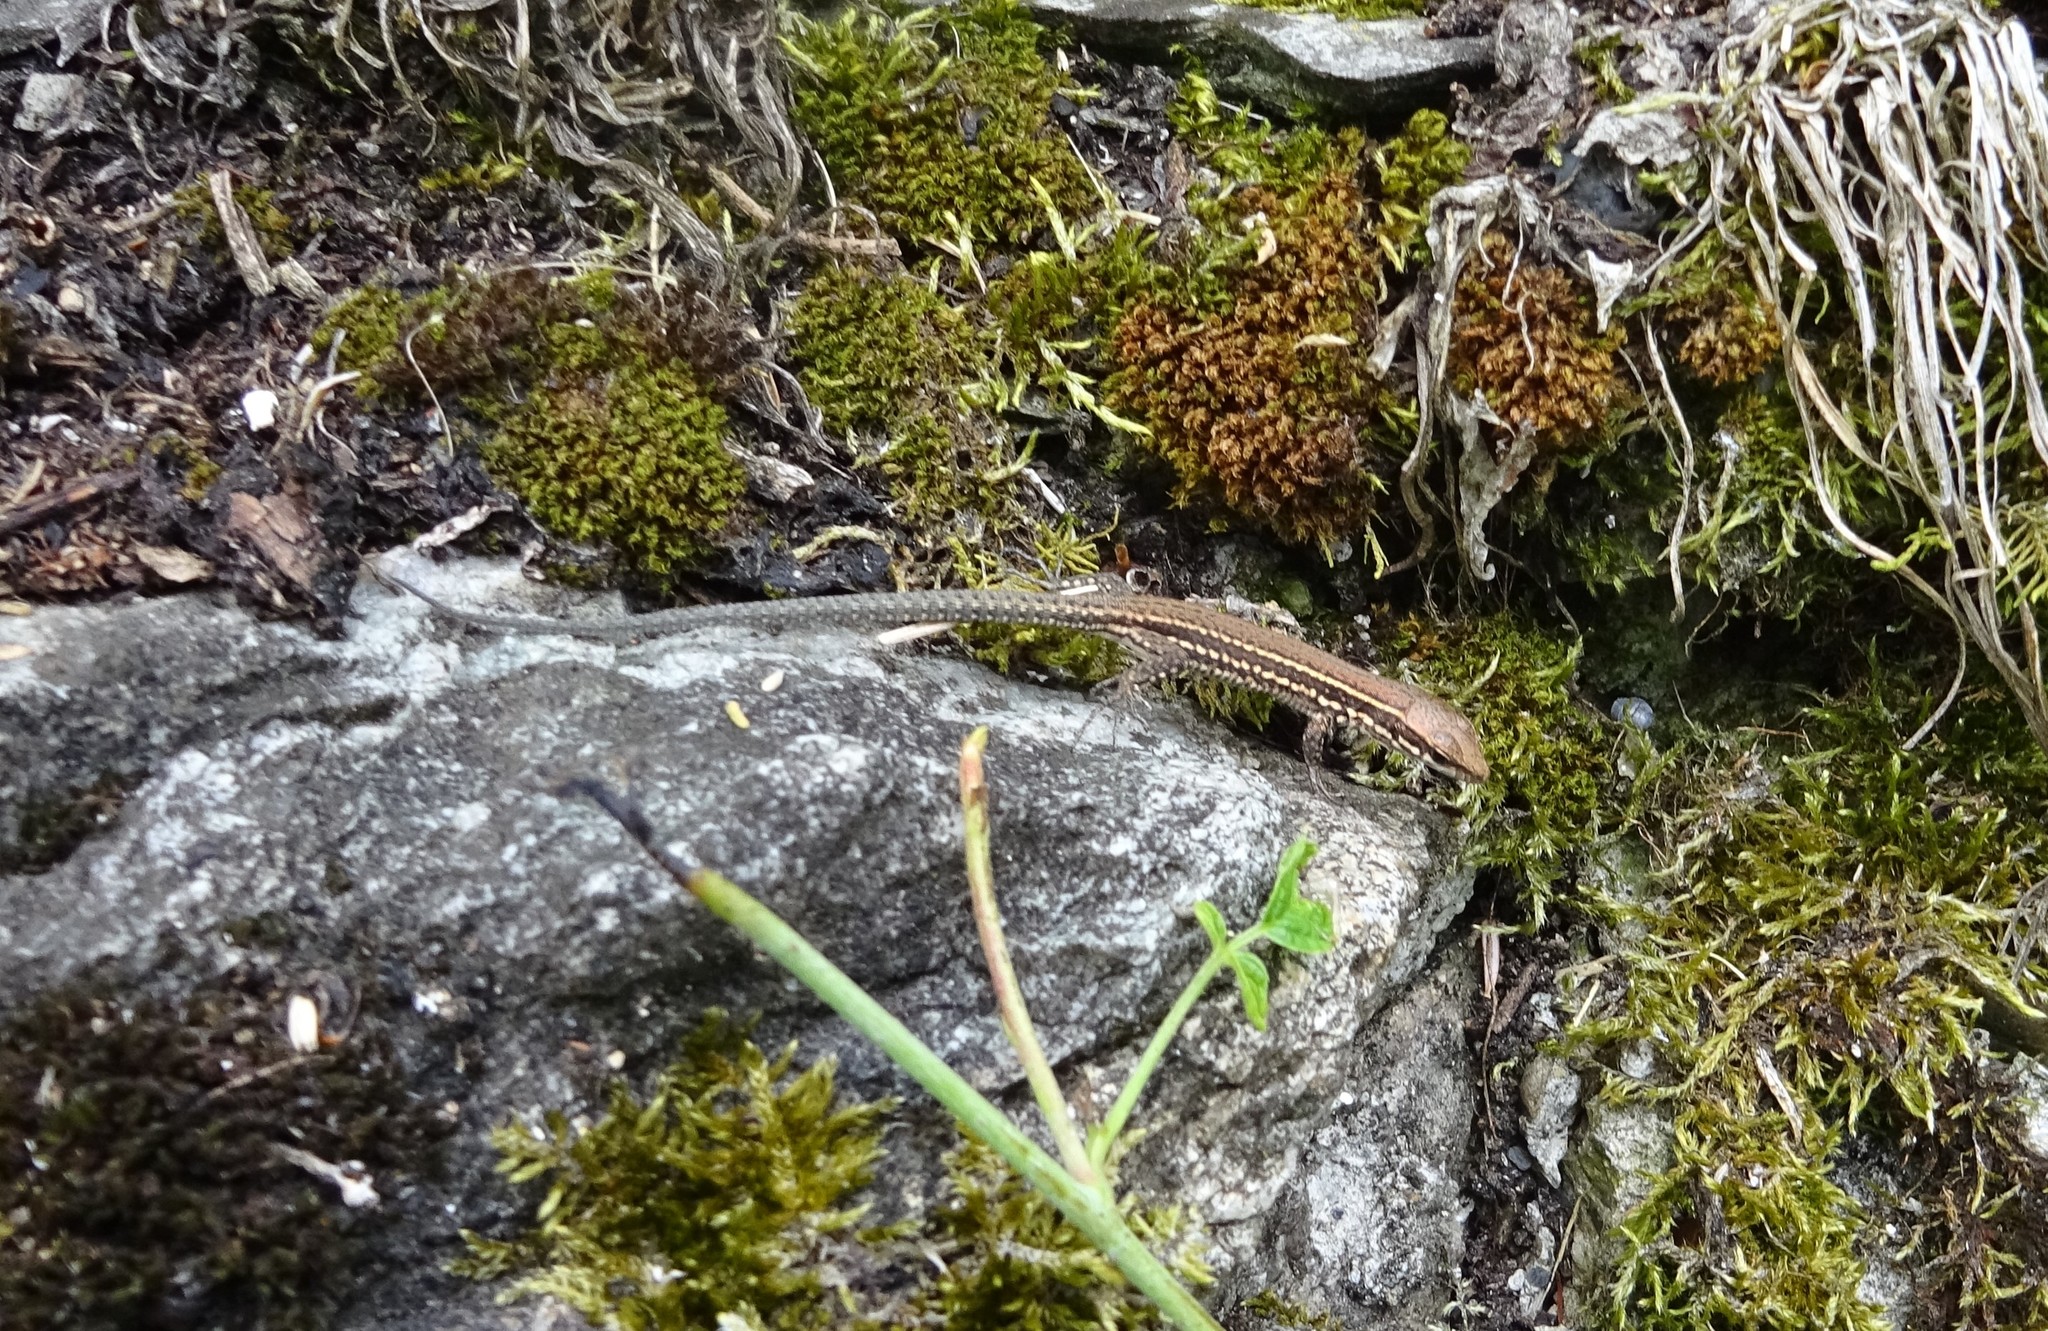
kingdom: Animalia
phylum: Chordata
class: Squamata
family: Lacertidae
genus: Podarcis
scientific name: Podarcis muralis
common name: Common wall lizard
